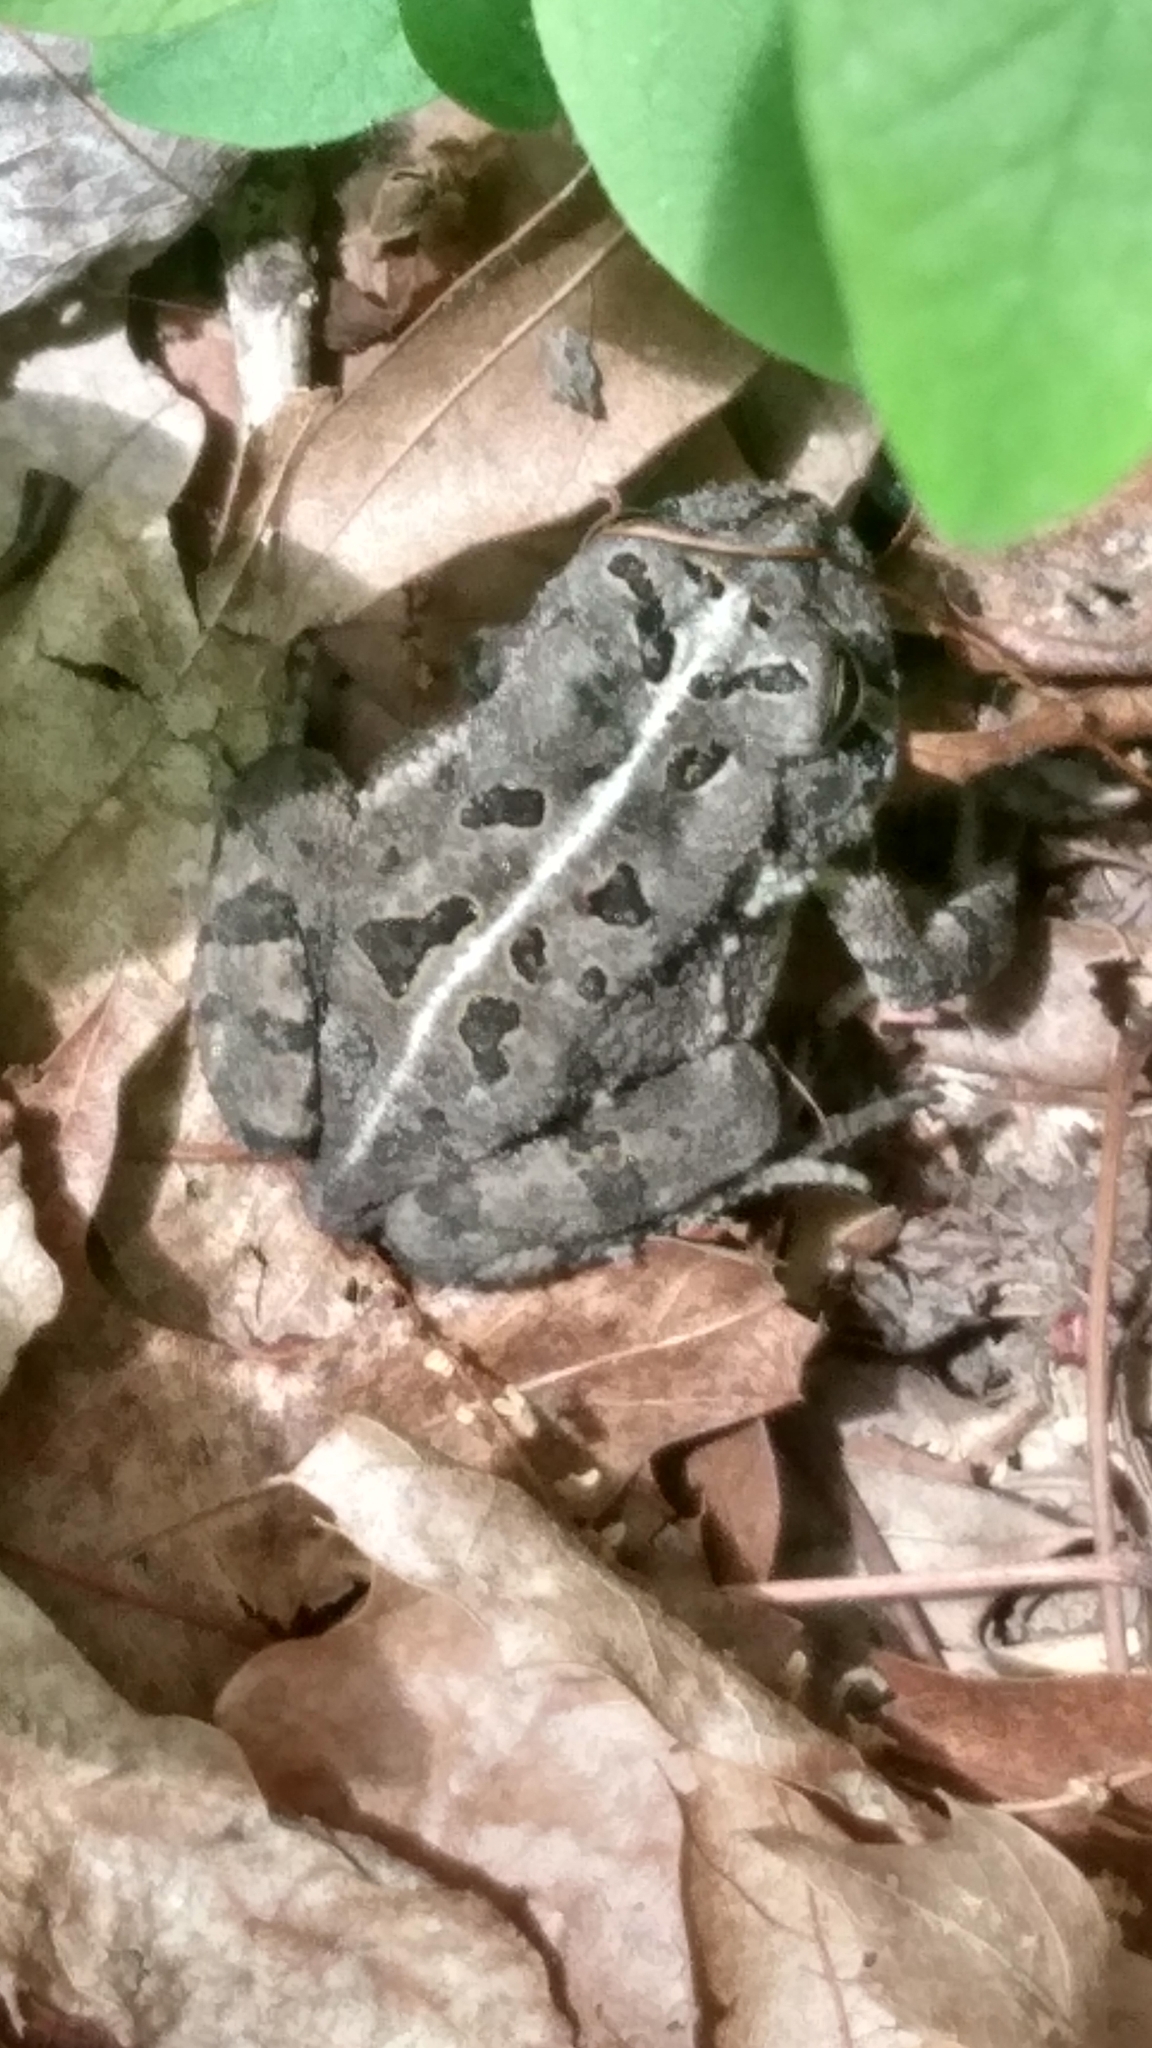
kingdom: Animalia
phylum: Chordata
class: Amphibia
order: Anura
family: Bufonidae
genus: Anaxyrus
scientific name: Anaxyrus fowleri
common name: Fowler's toad
